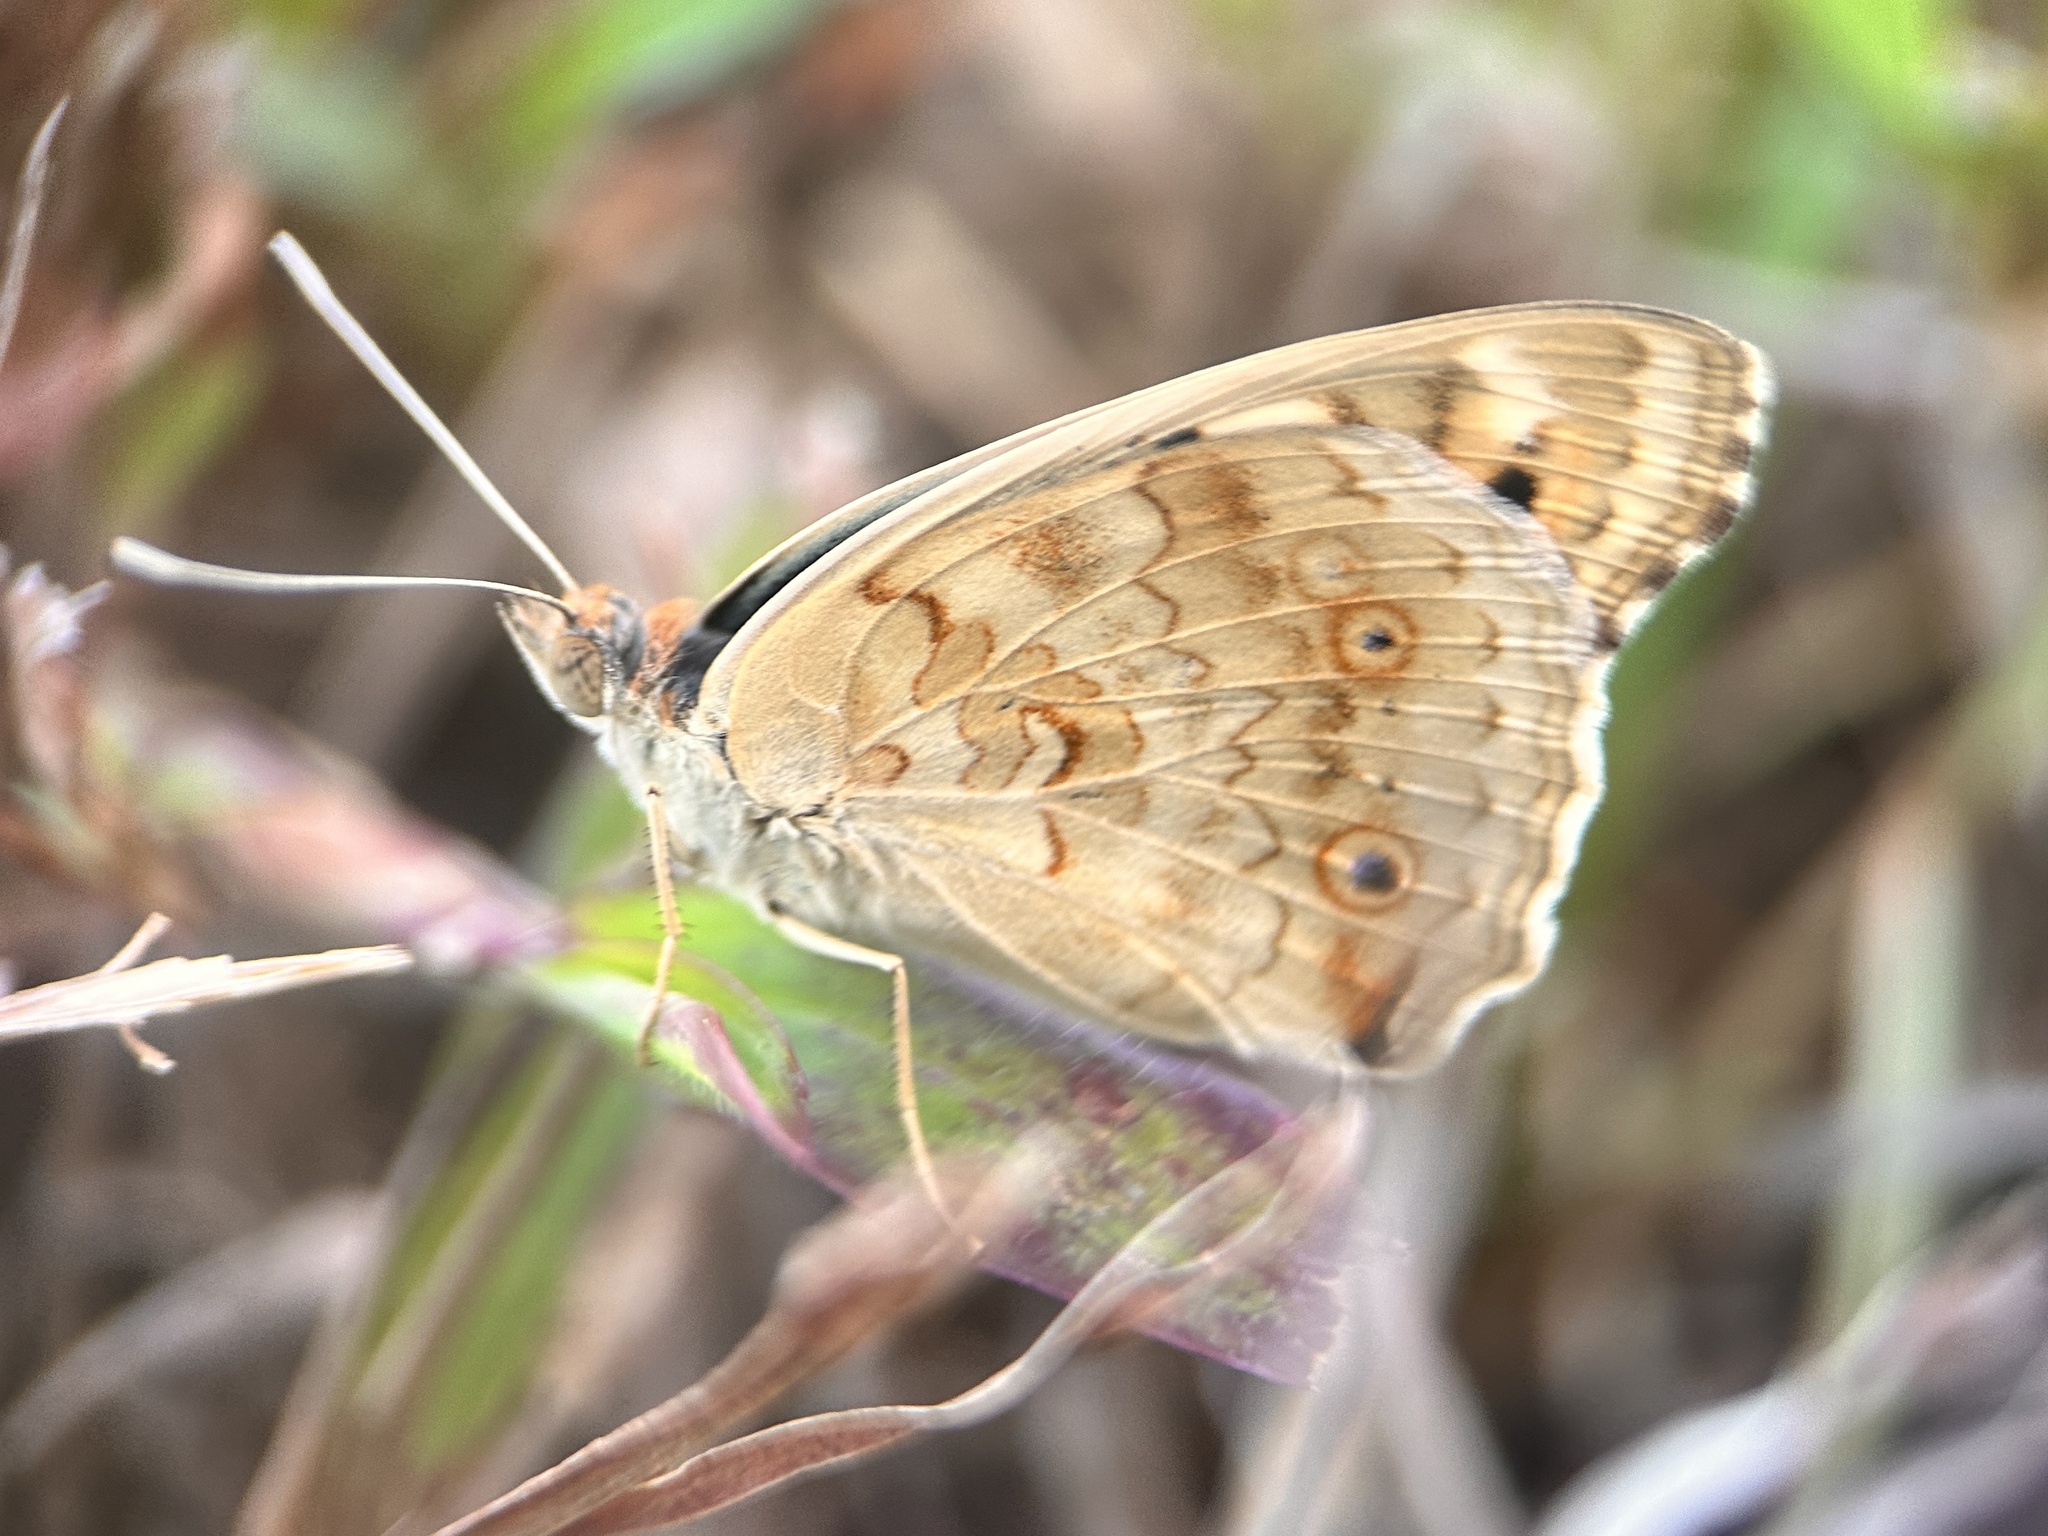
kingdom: Animalia
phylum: Arthropoda
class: Insecta
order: Lepidoptera
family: Nymphalidae
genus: Junonia
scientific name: Junonia orithya
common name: Blue pansy
